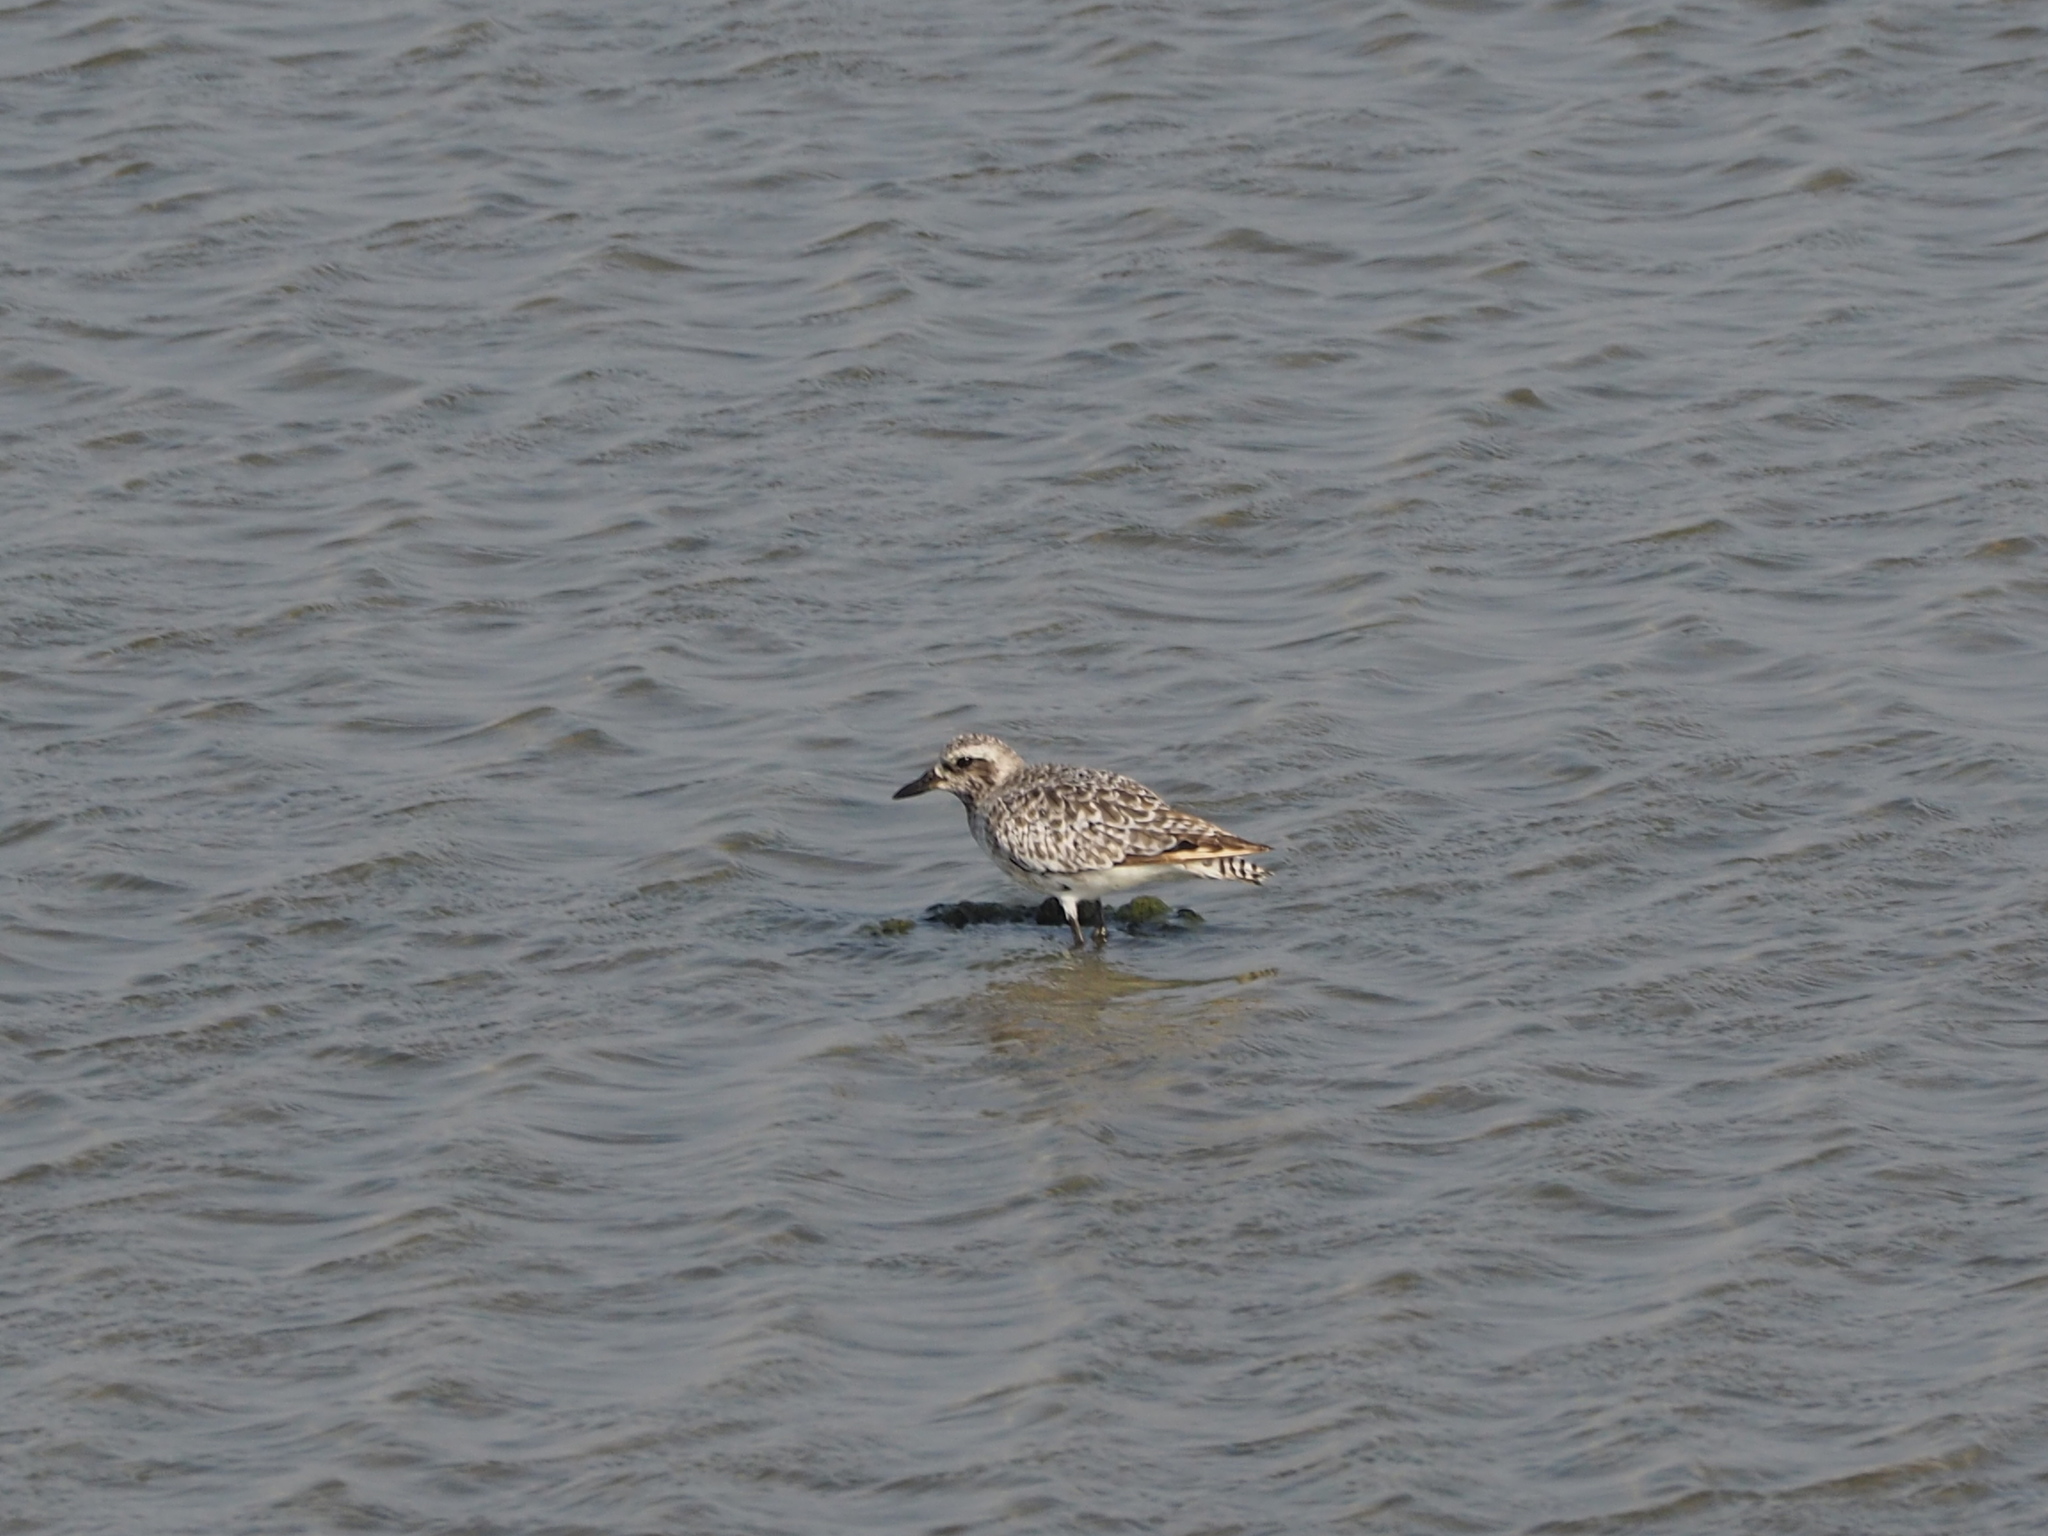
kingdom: Animalia
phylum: Chordata
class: Aves
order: Charadriiformes
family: Charadriidae
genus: Pluvialis
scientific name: Pluvialis squatarola
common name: Grey plover
